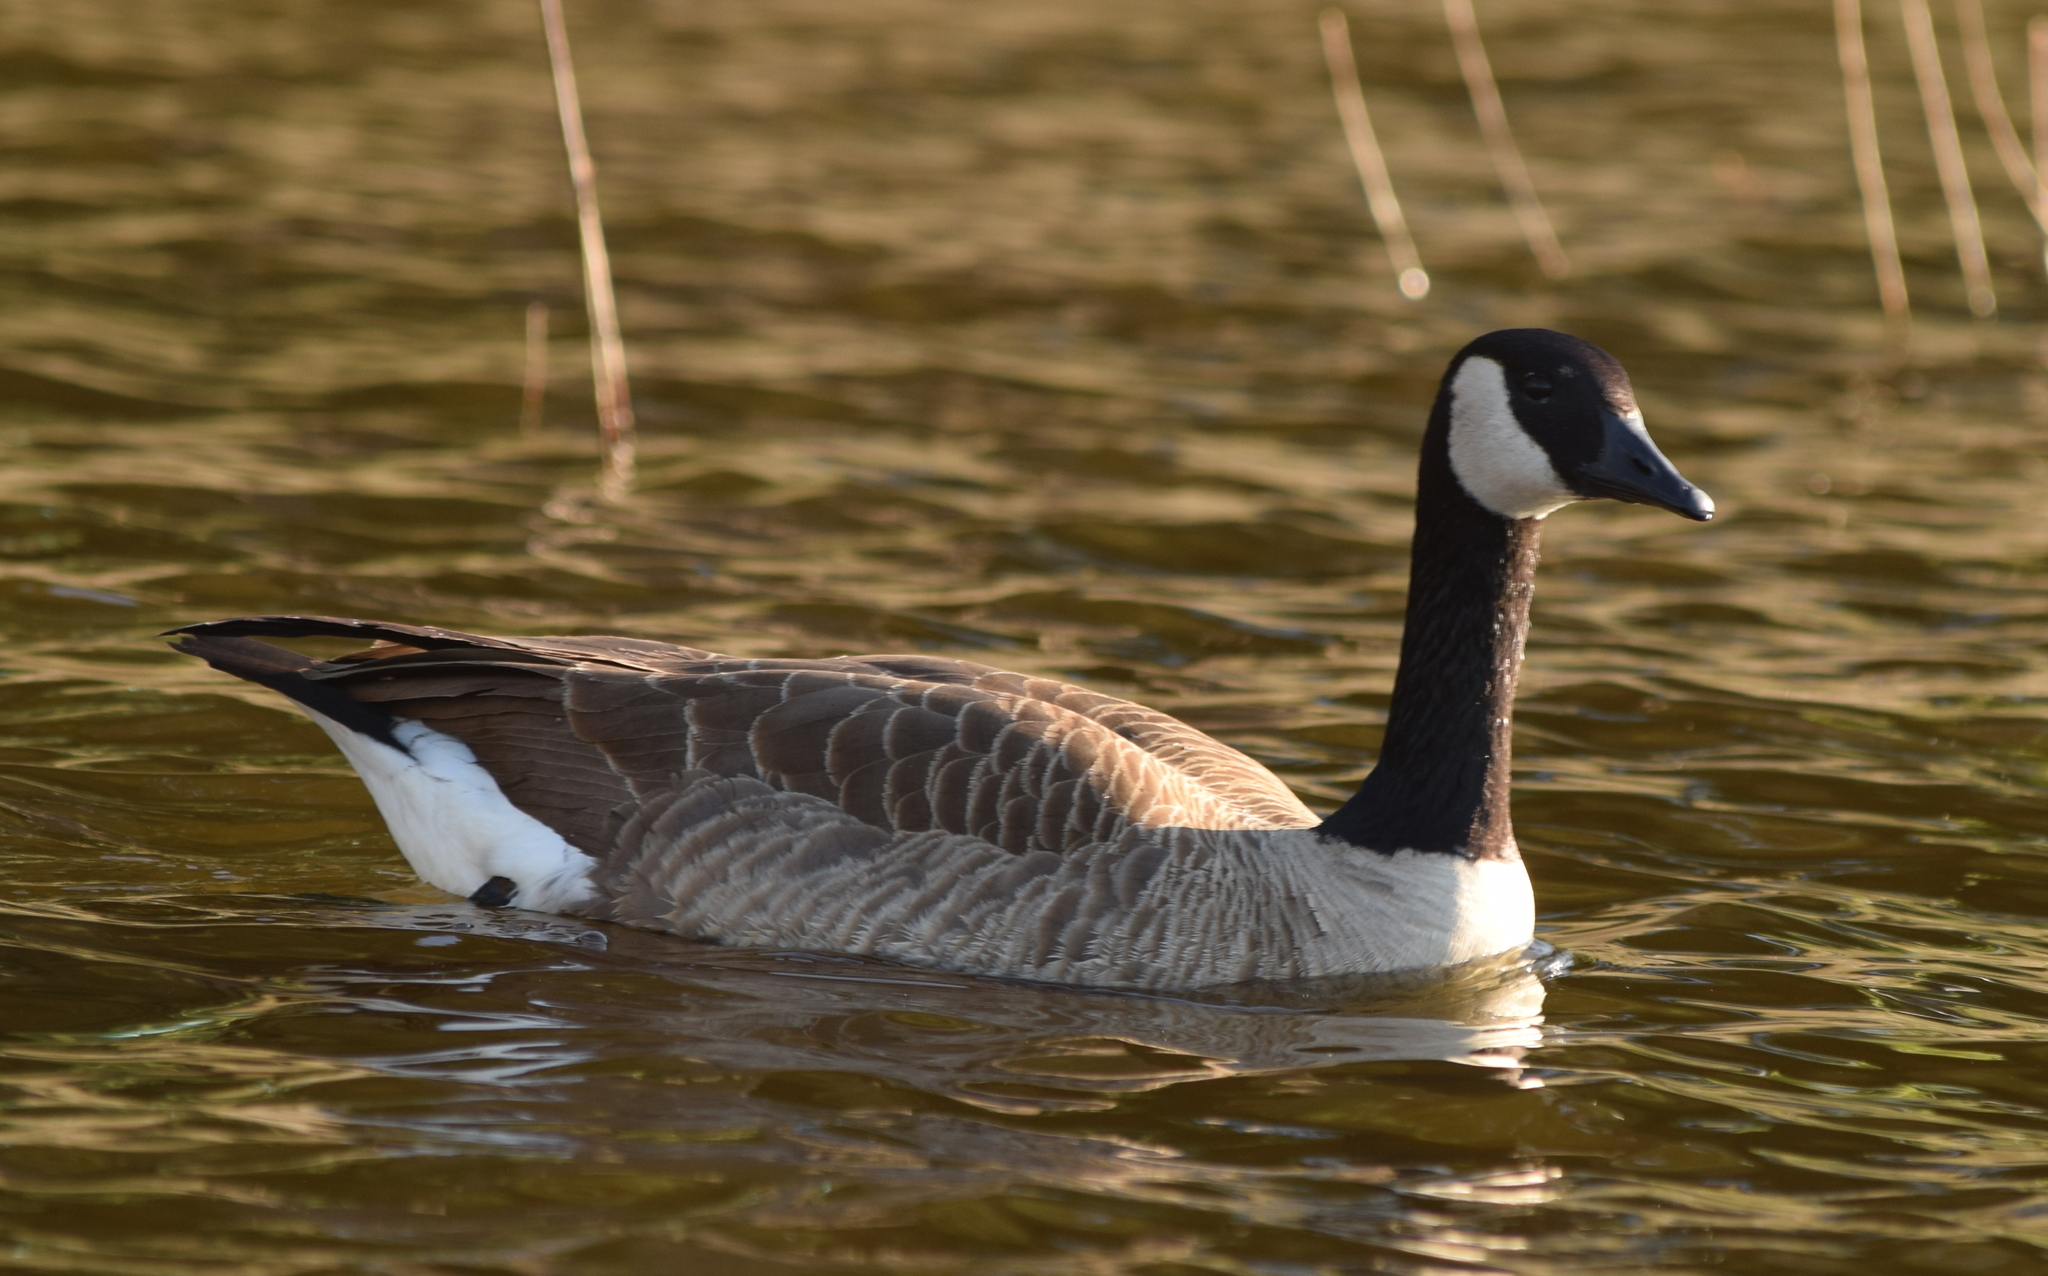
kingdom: Animalia
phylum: Chordata
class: Aves
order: Anseriformes
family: Anatidae
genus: Branta
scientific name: Branta canadensis
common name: Canada goose
